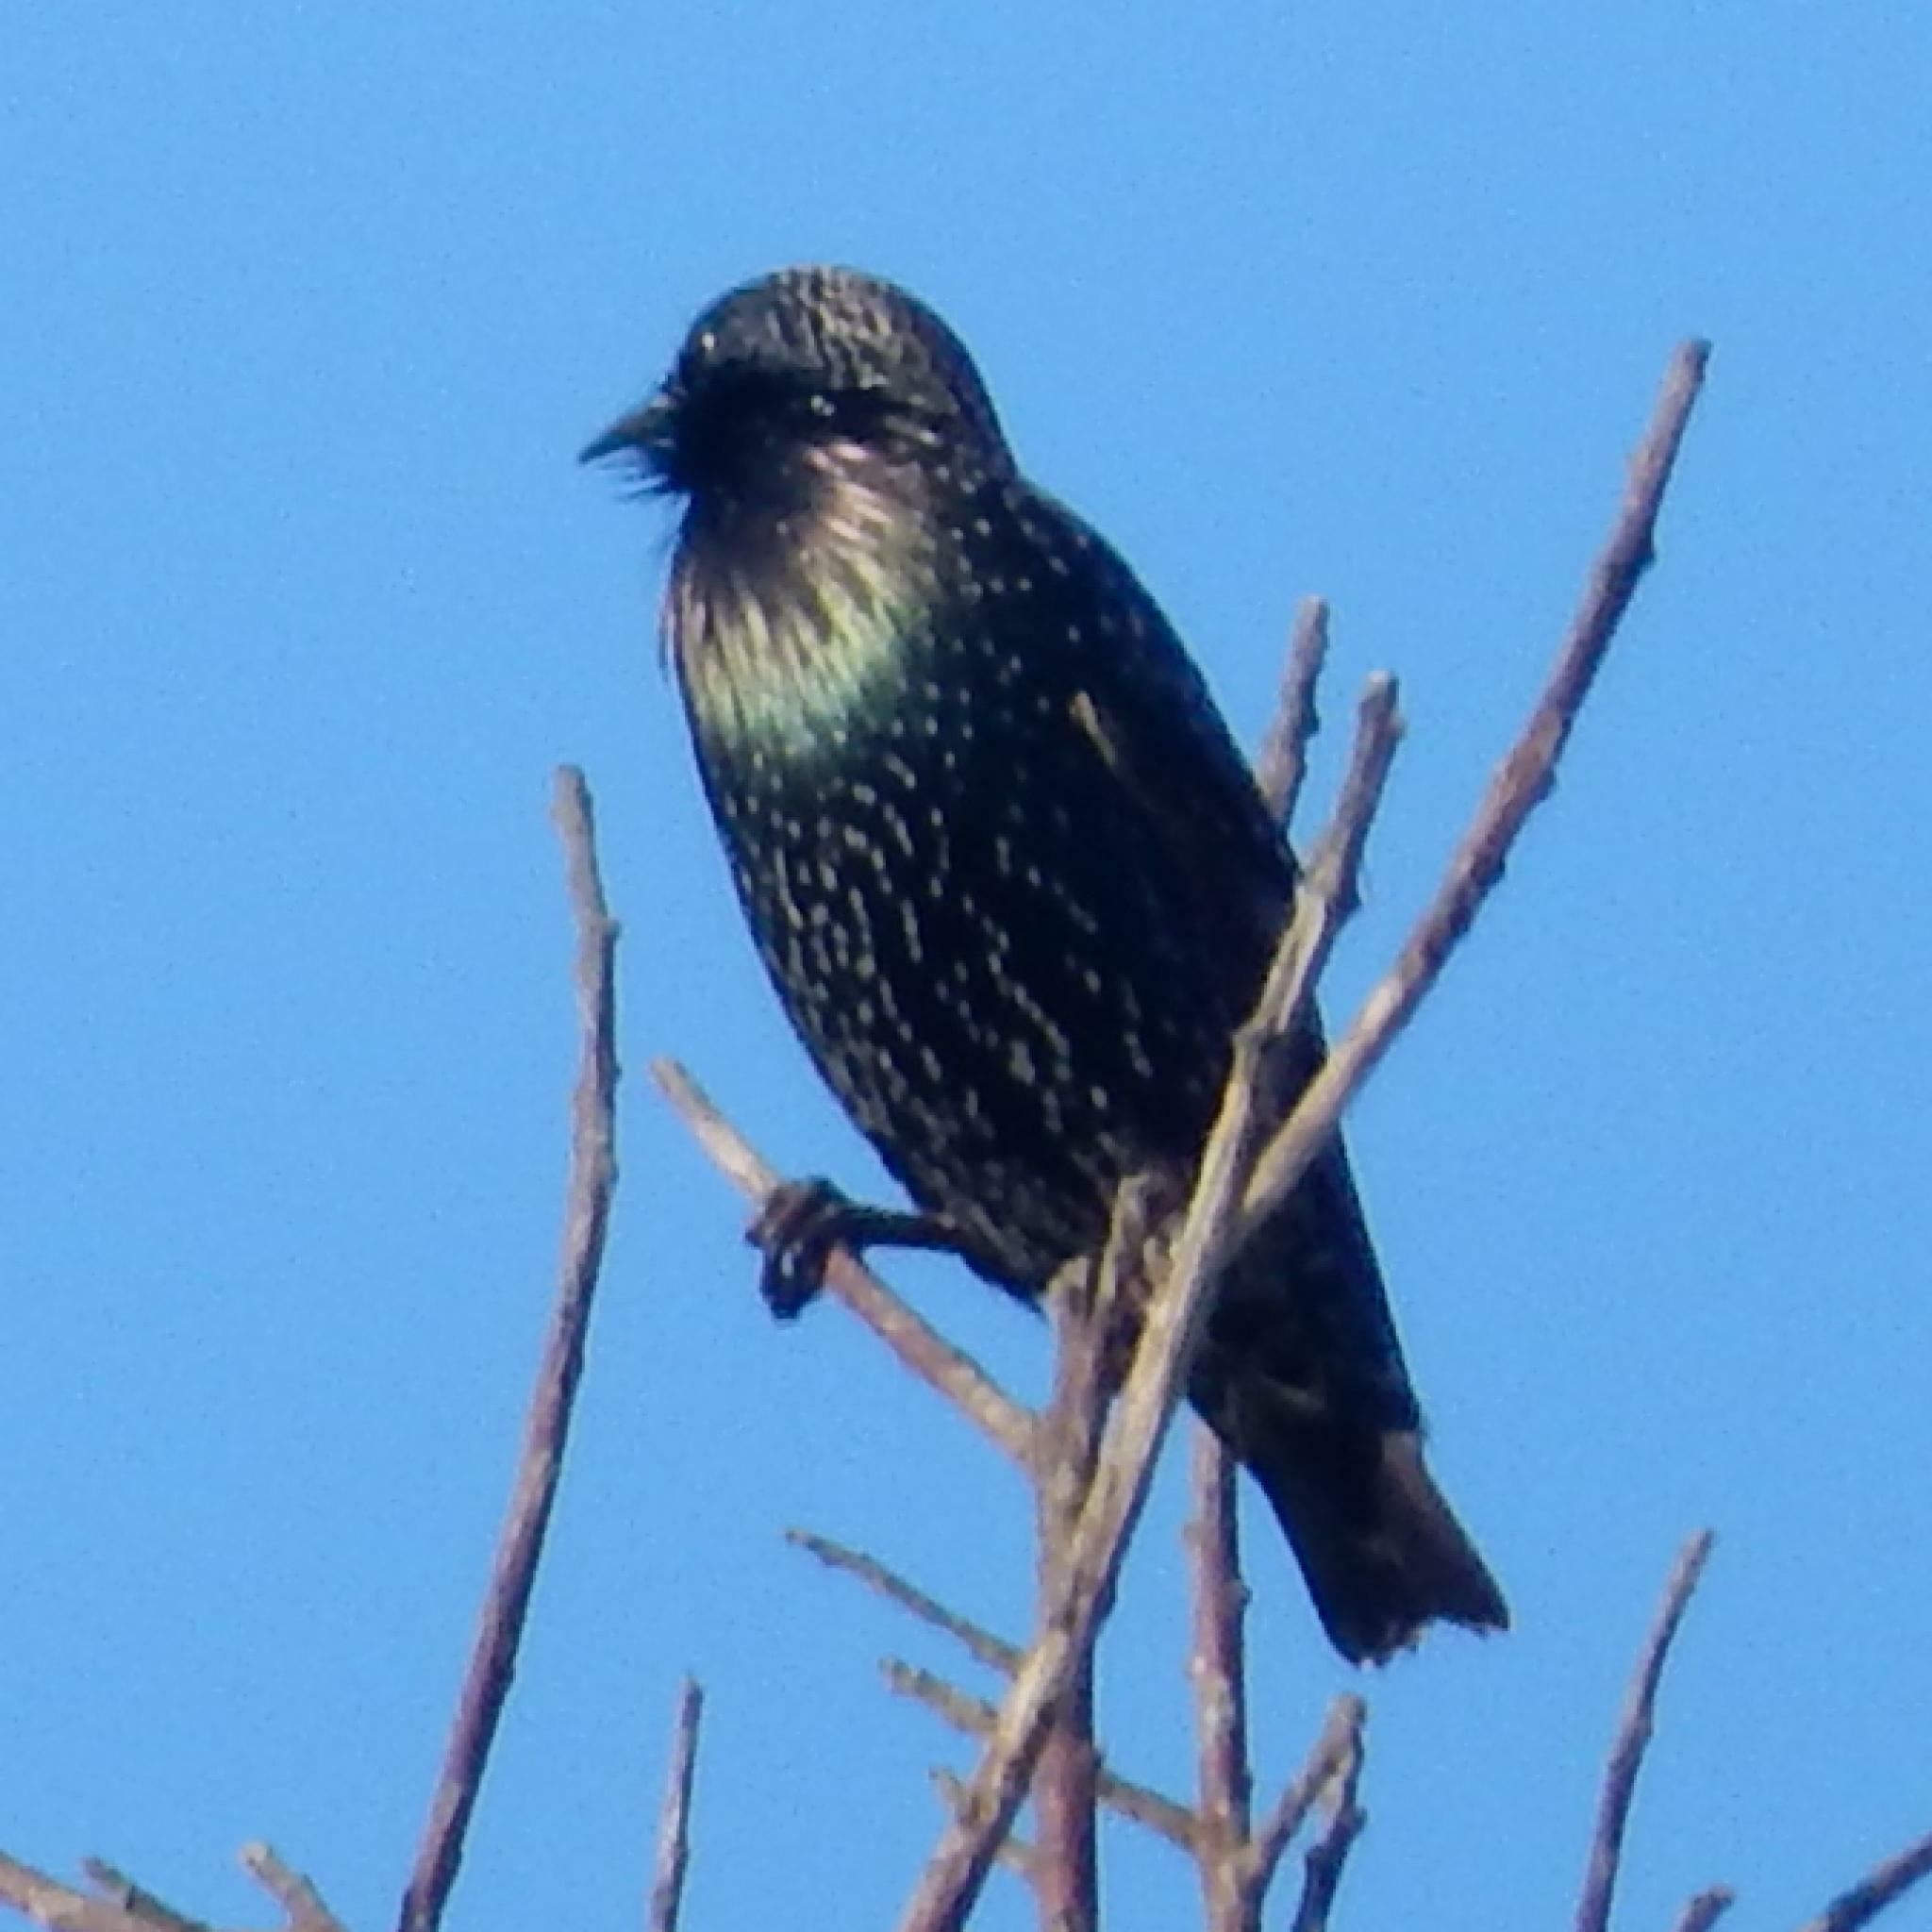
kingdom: Animalia
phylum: Chordata
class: Aves
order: Passeriformes
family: Sturnidae
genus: Sturnus
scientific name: Sturnus vulgaris
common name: Common starling
